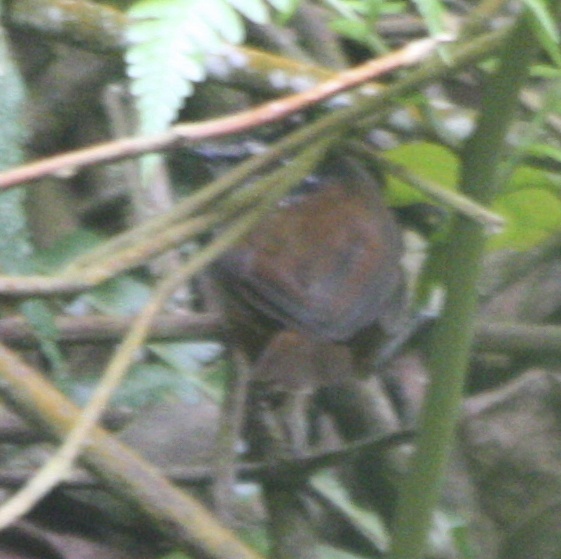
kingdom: Animalia
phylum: Chordata
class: Aves
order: Passeriformes
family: Troglodytidae
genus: Henicorhina
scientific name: Henicorhina leucophrys
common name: Gray-breasted wood-wren
